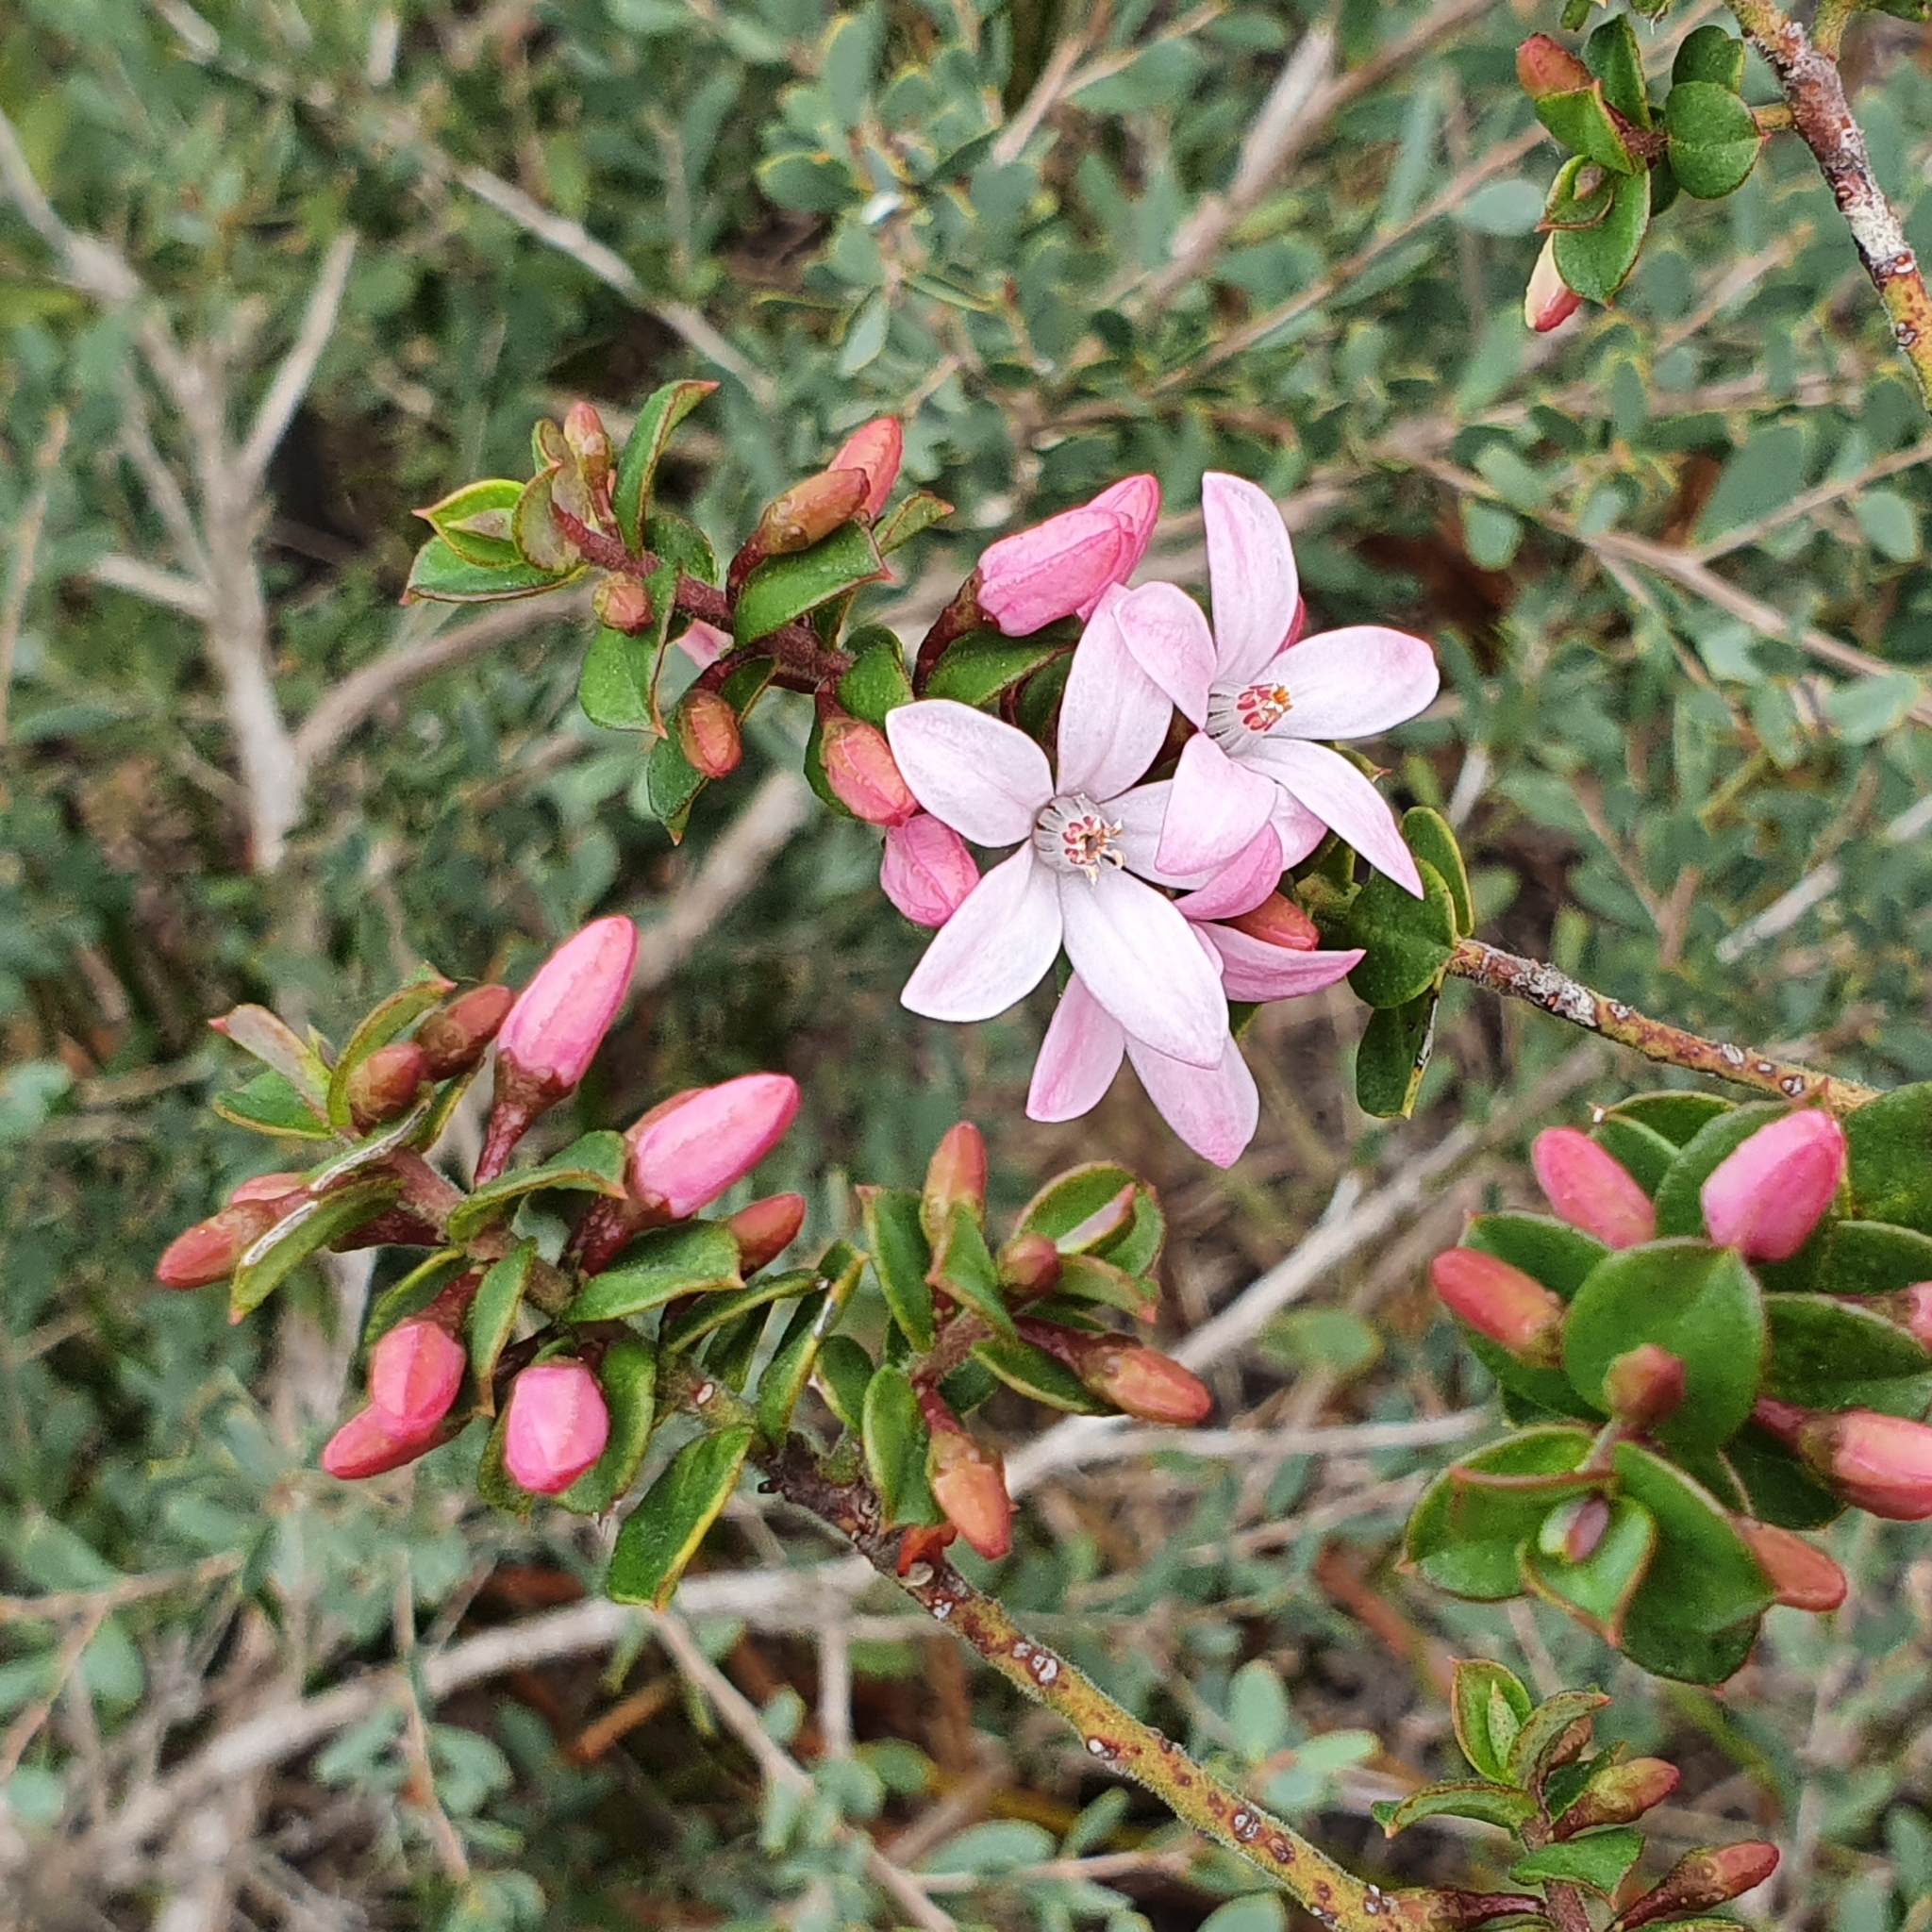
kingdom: Plantae
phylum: Tracheophyta
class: Magnoliopsida
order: Sapindales
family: Rutaceae
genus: Philotheca
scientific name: Philotheca buxifolia
